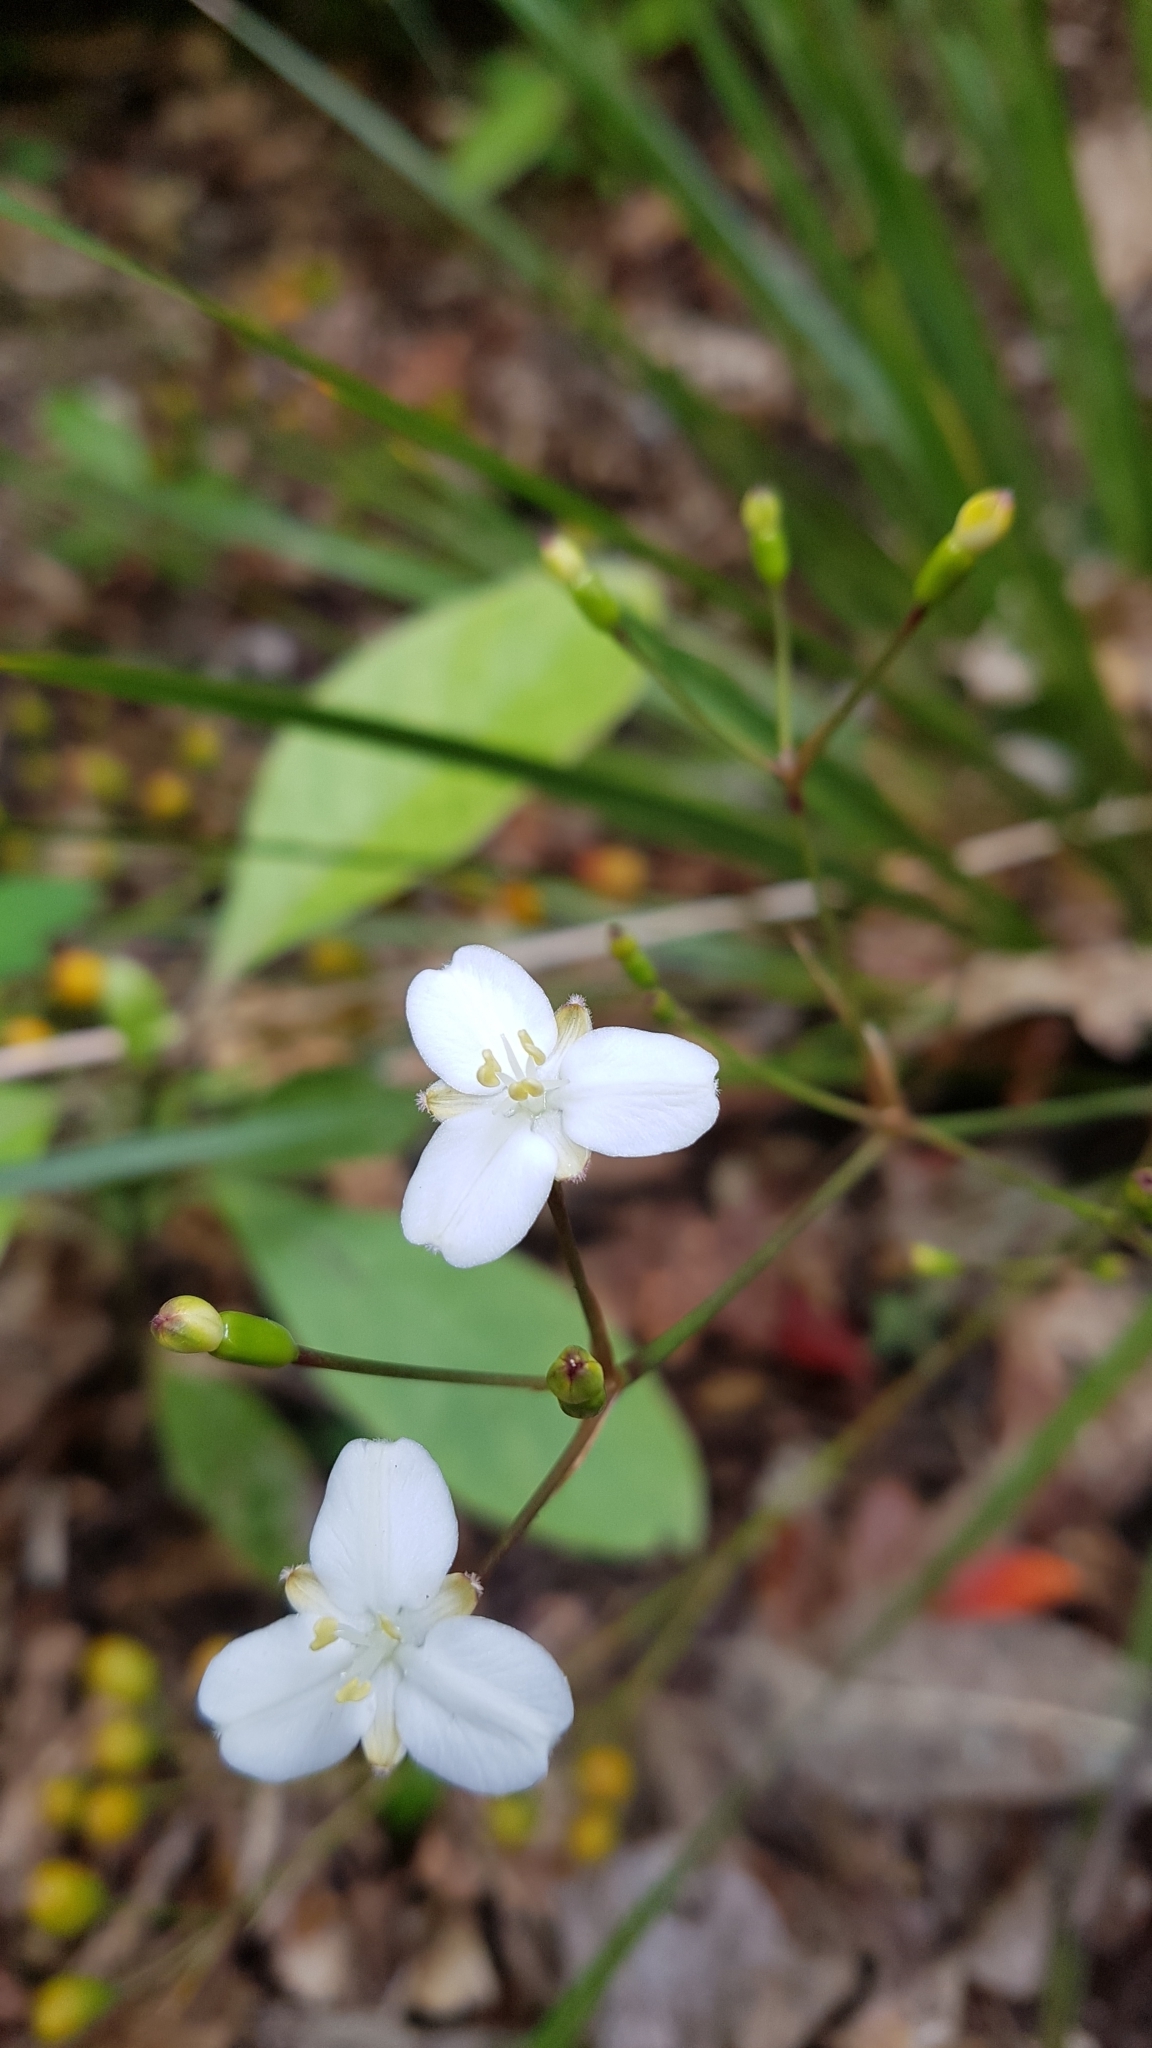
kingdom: Plantae
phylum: Tracheophyta
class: Liliopsida
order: Asparagales
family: Iridaceae
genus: Libertia
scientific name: Libertia ixioides
